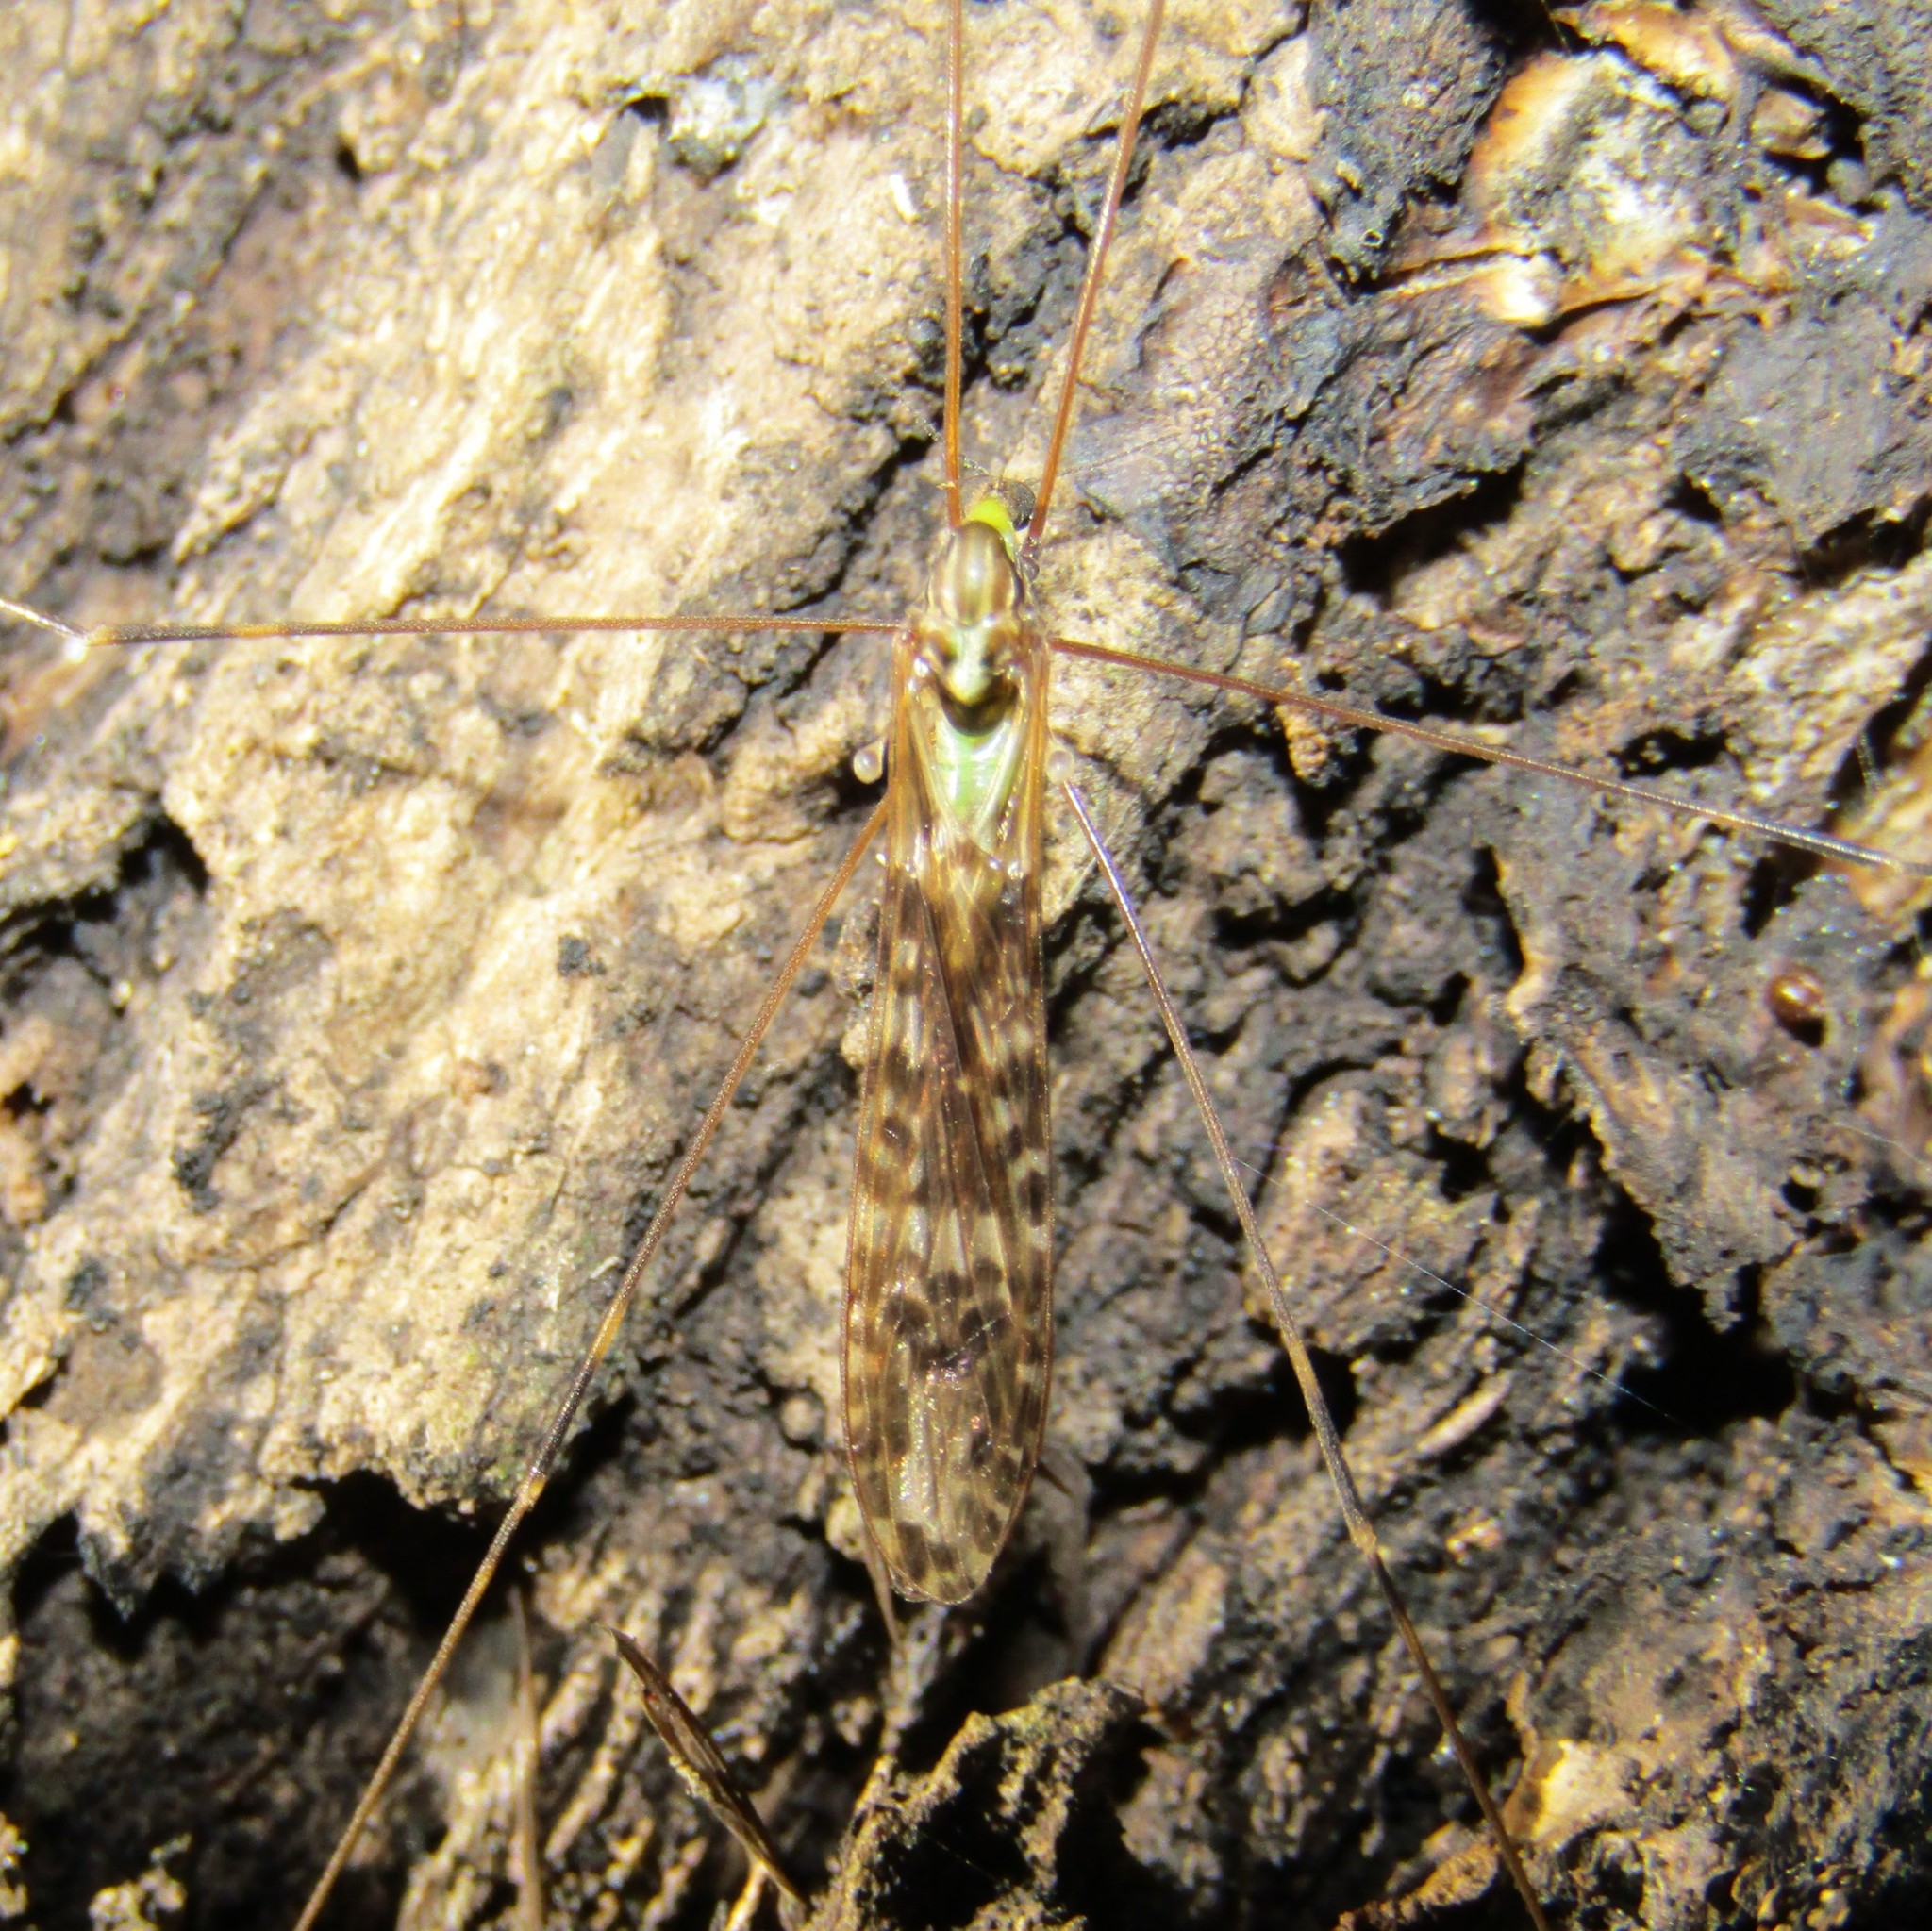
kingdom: Animalia
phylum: Arthropoda
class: Insecta
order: Diptera
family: Limoniidae
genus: Discobola
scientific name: Discobola dohrni
